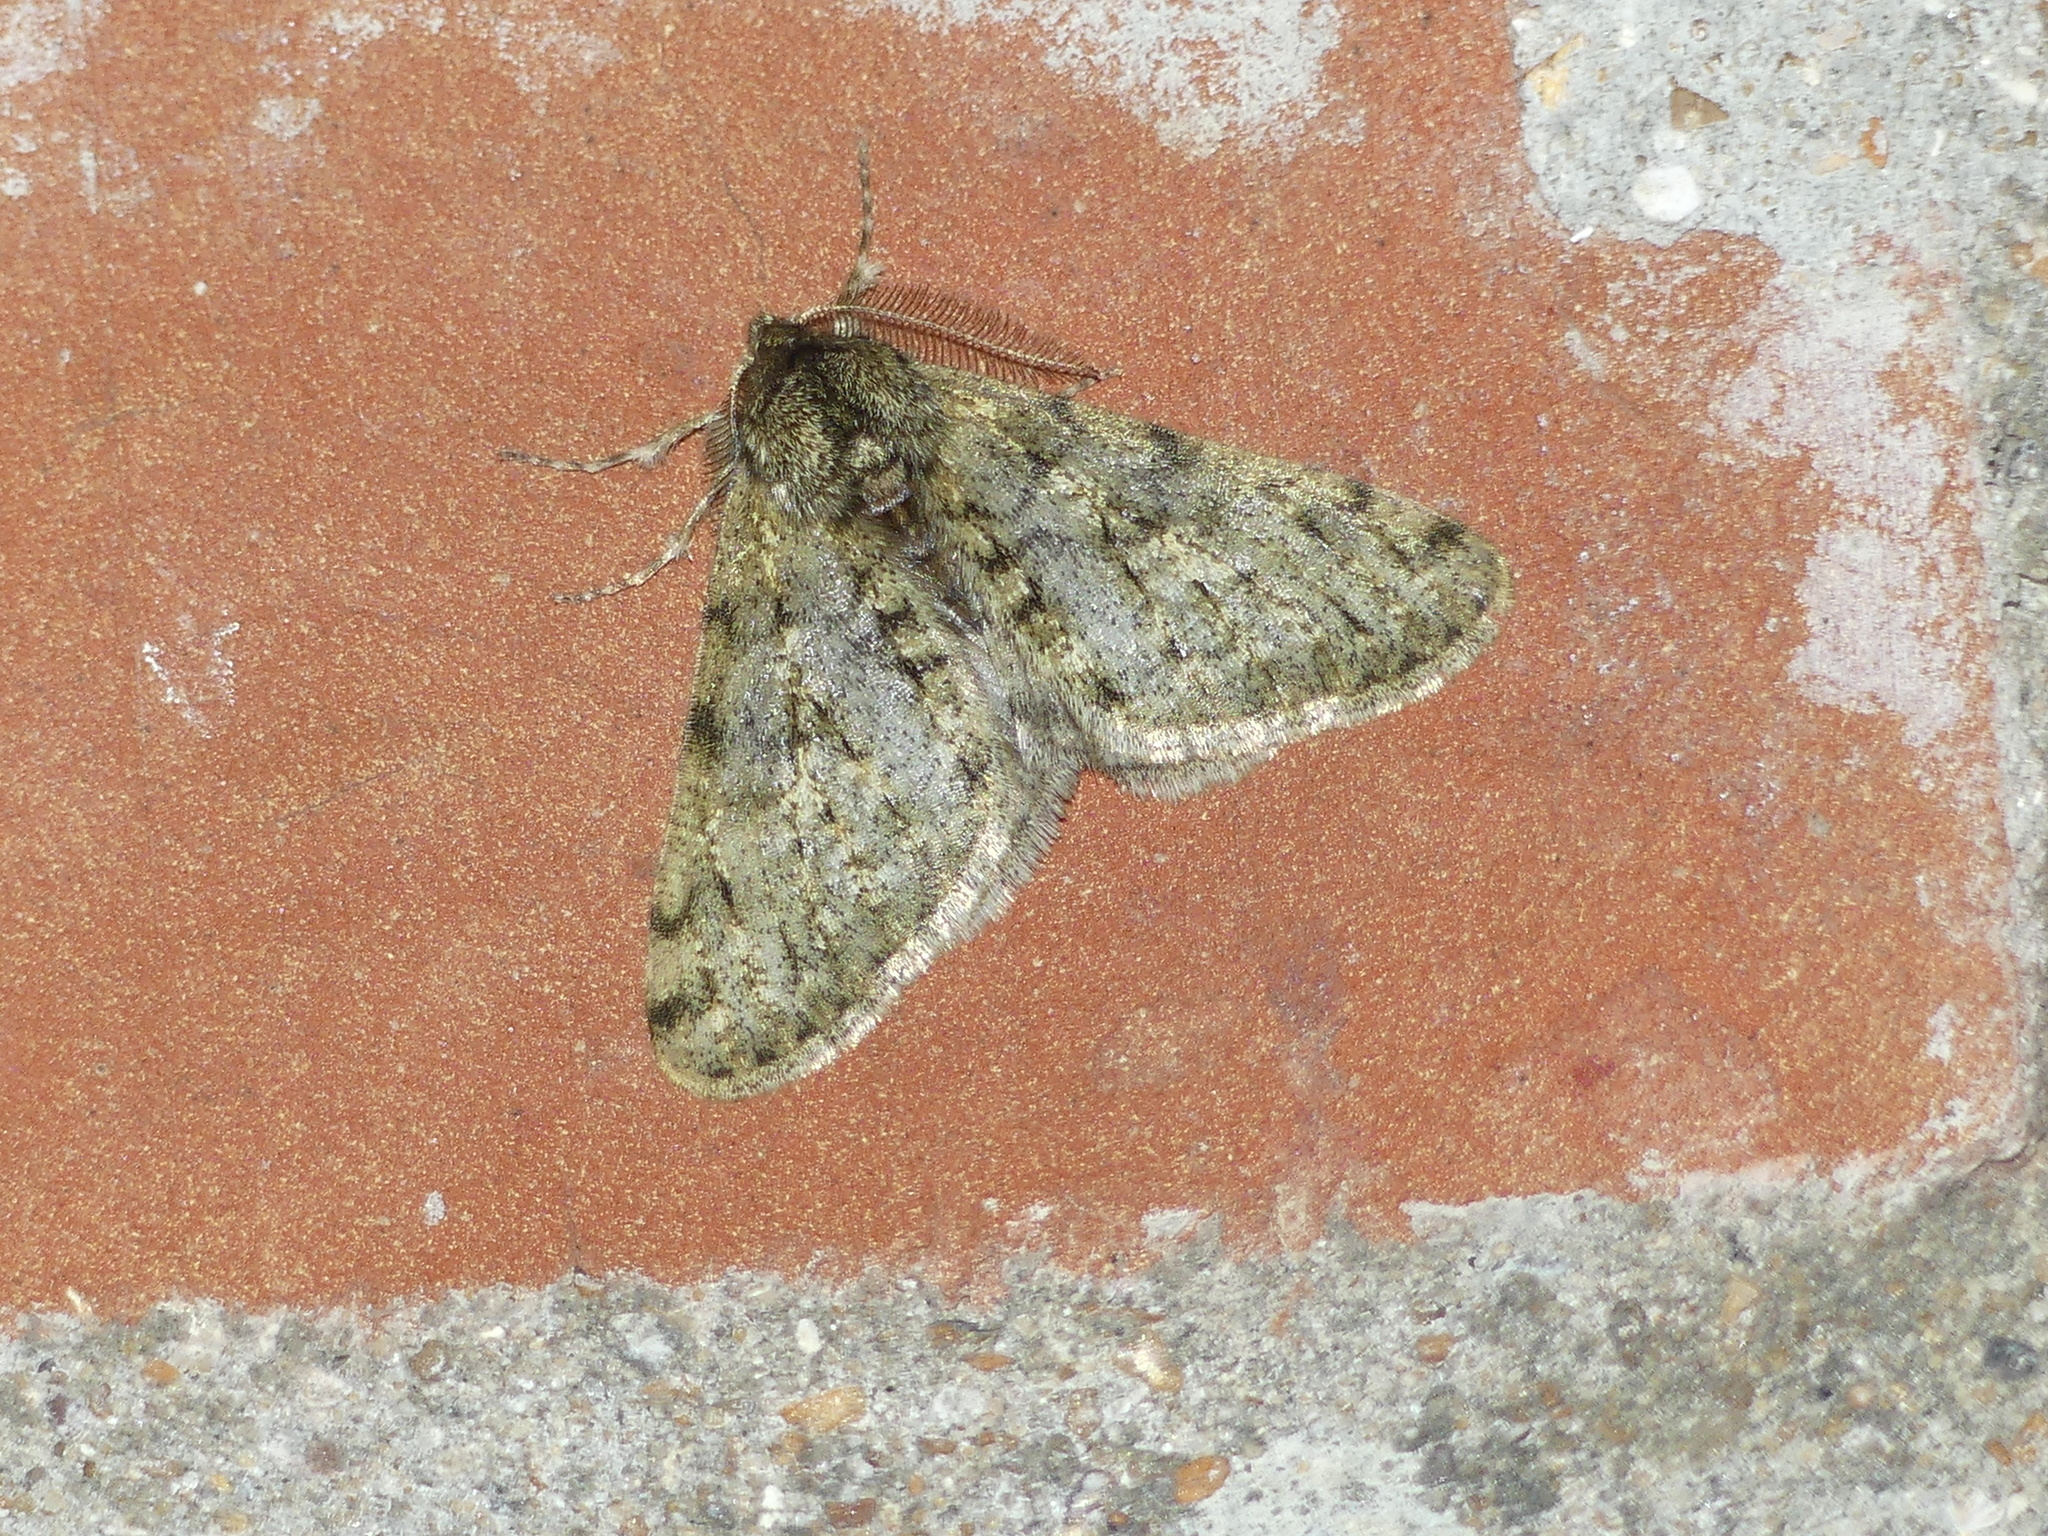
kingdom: Animalia
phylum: Arthropoda
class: Insecta
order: Lepidoptera
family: Geometridae
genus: Phigalia
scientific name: Phigalia pilosaria
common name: Pale brindled beauty
